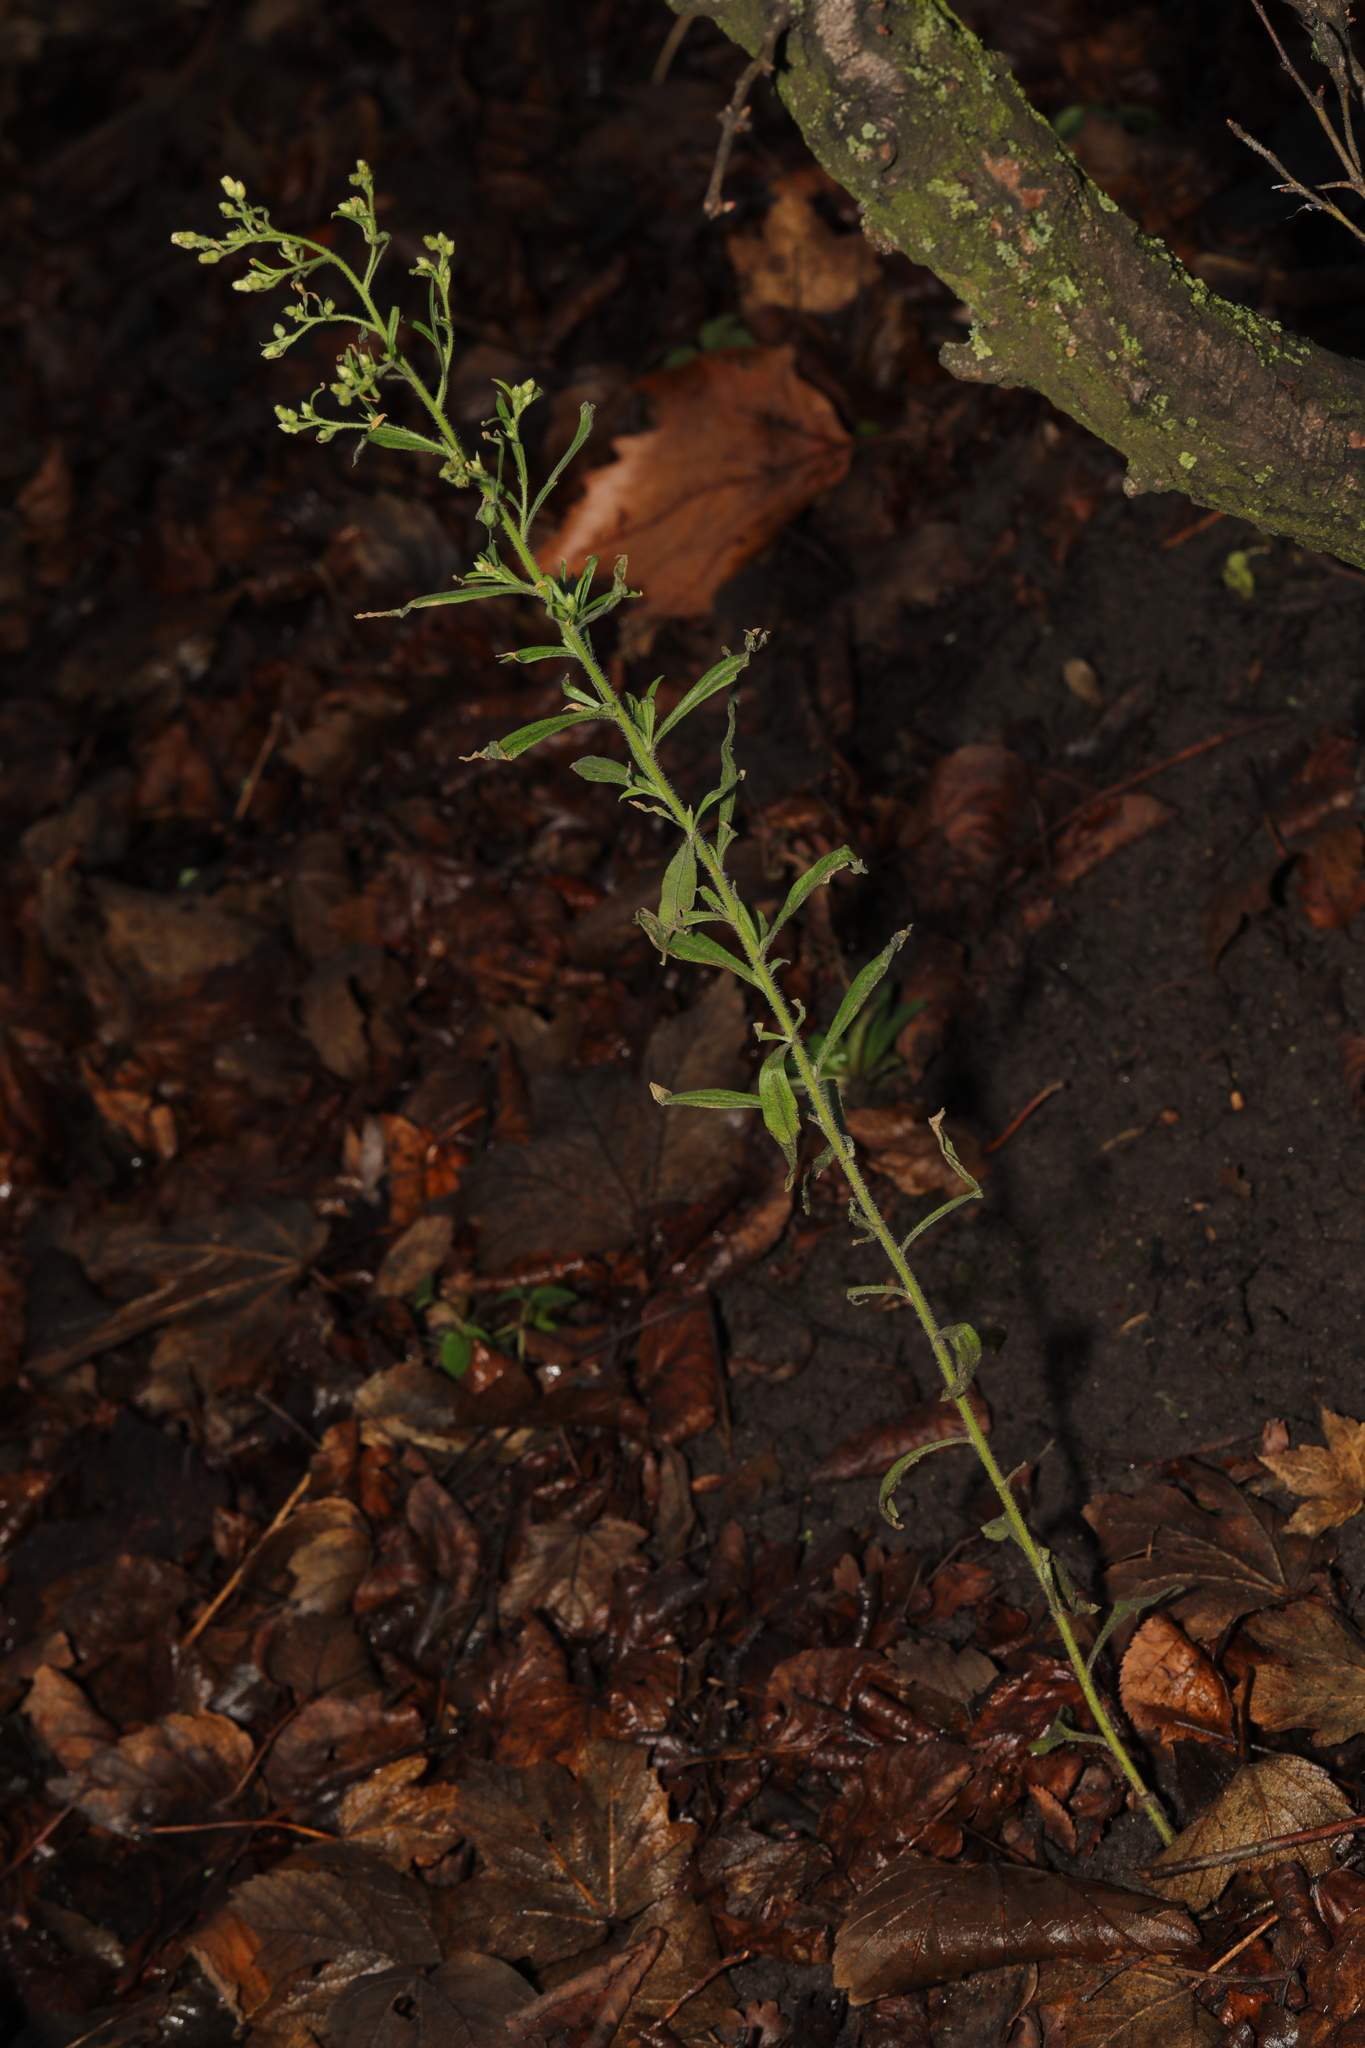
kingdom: Plantae
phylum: Tracheophyta
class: Magnoliopsida
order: Asterales
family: Asteraceae
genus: Erigeron
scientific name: Erigeron canadensis
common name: Canadian fleabane
